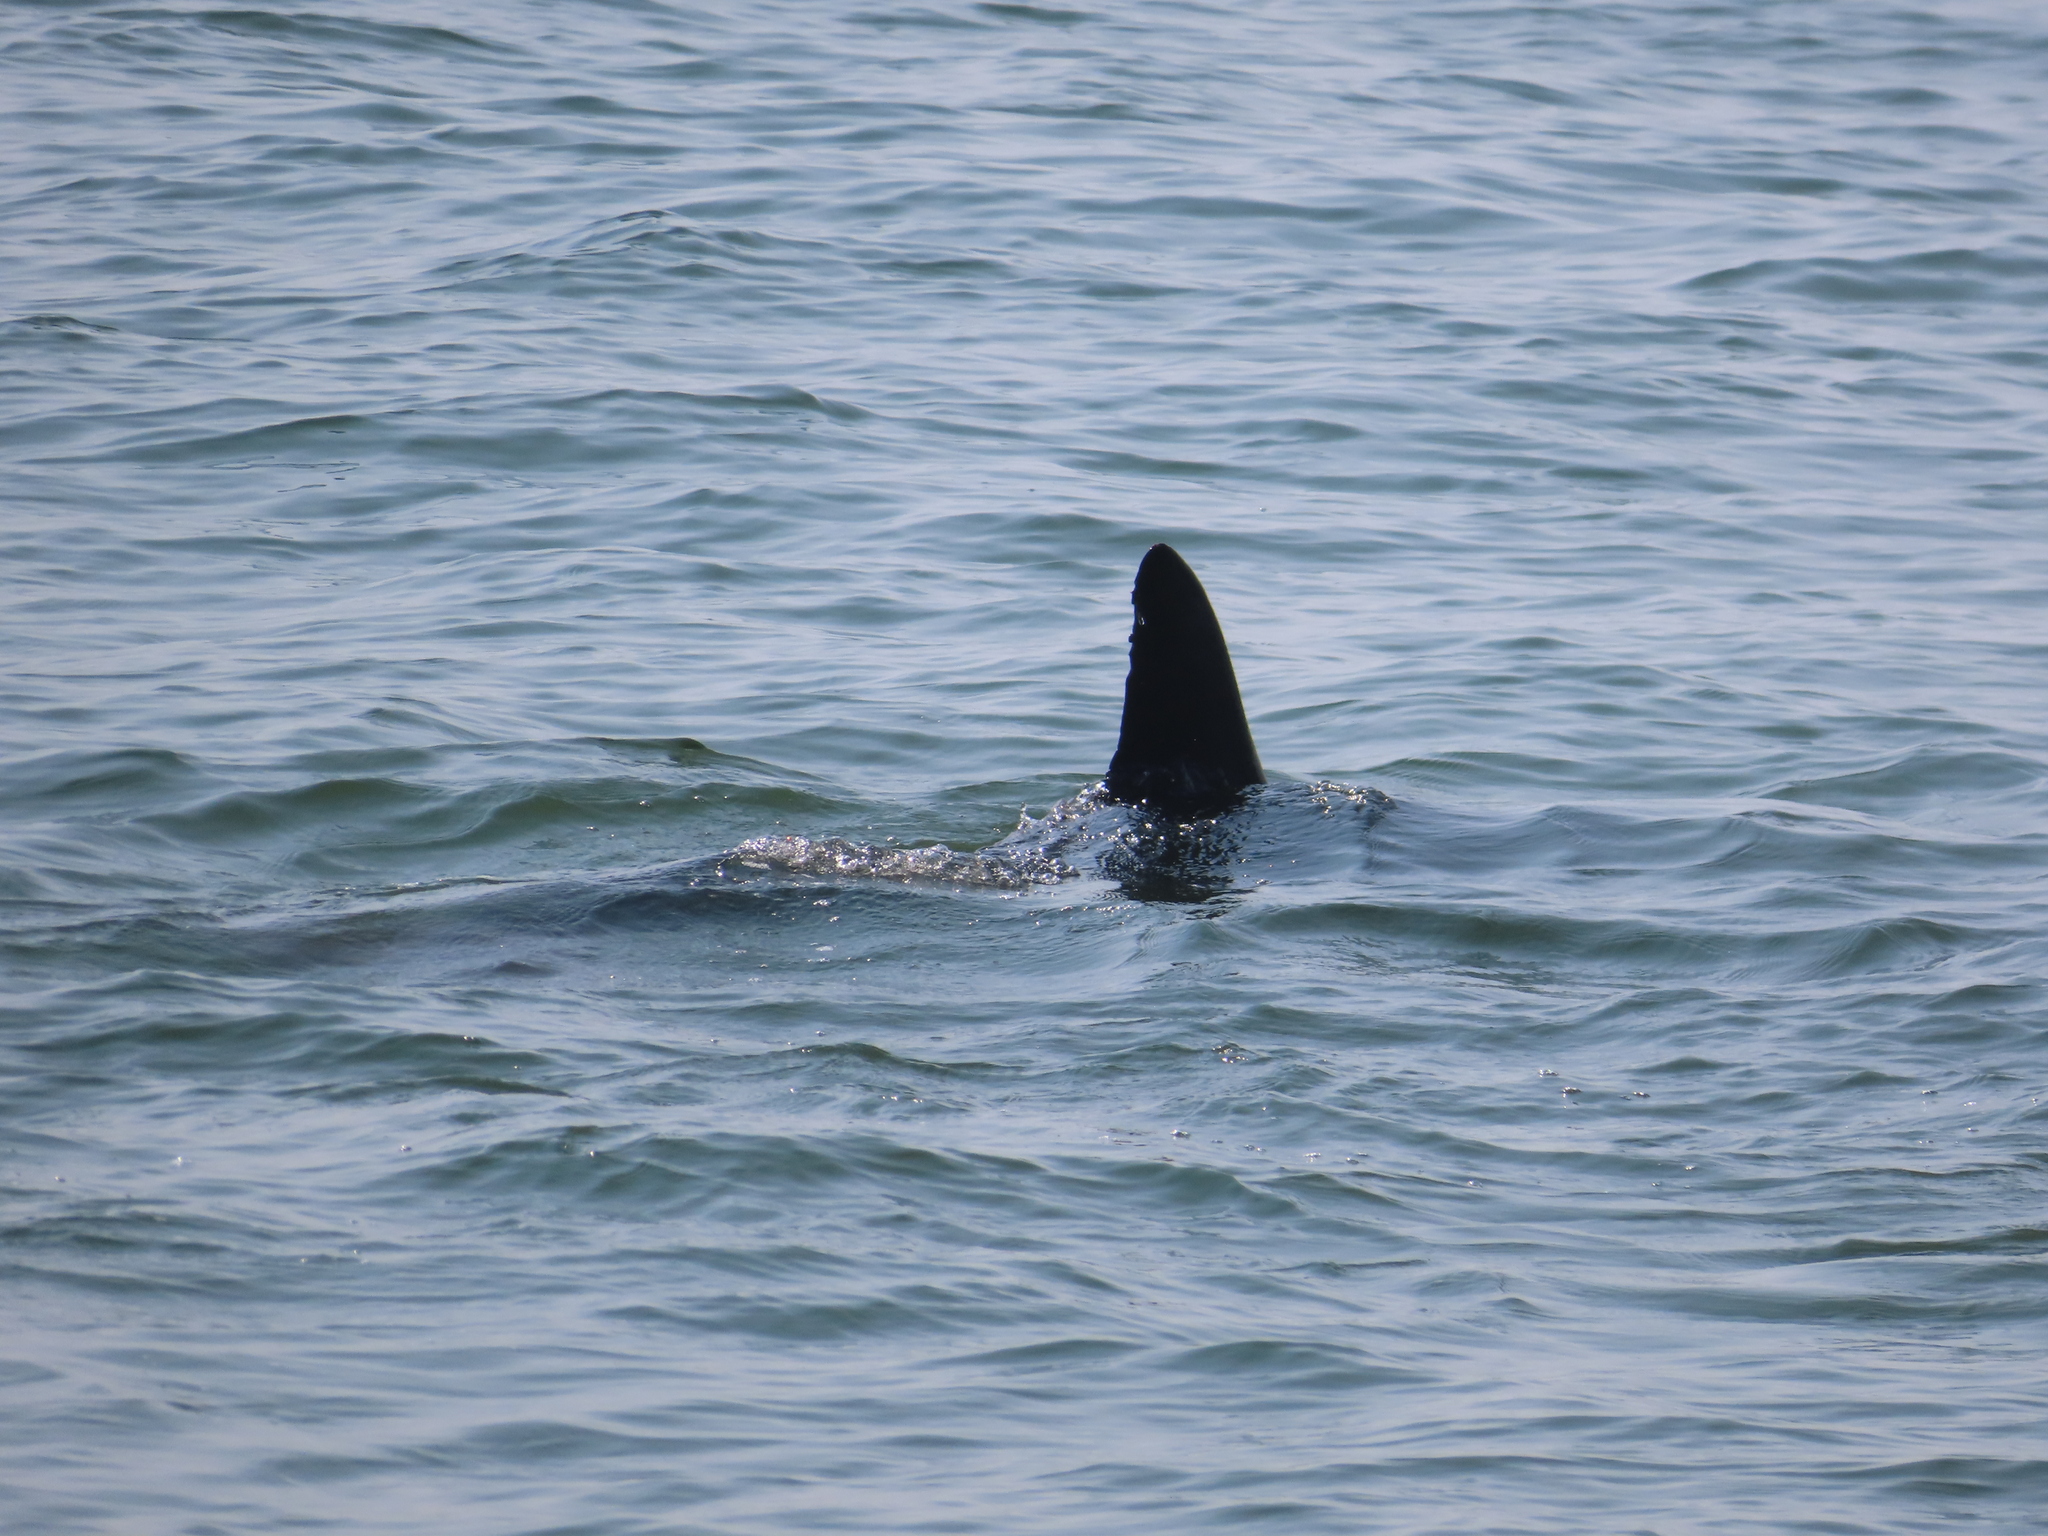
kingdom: Animalia
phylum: Chordata
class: Mammalia
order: Cetacea
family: Delphinidae
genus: Tursiops
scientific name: Tursiops truncatus
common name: Bottlenose dolphin
